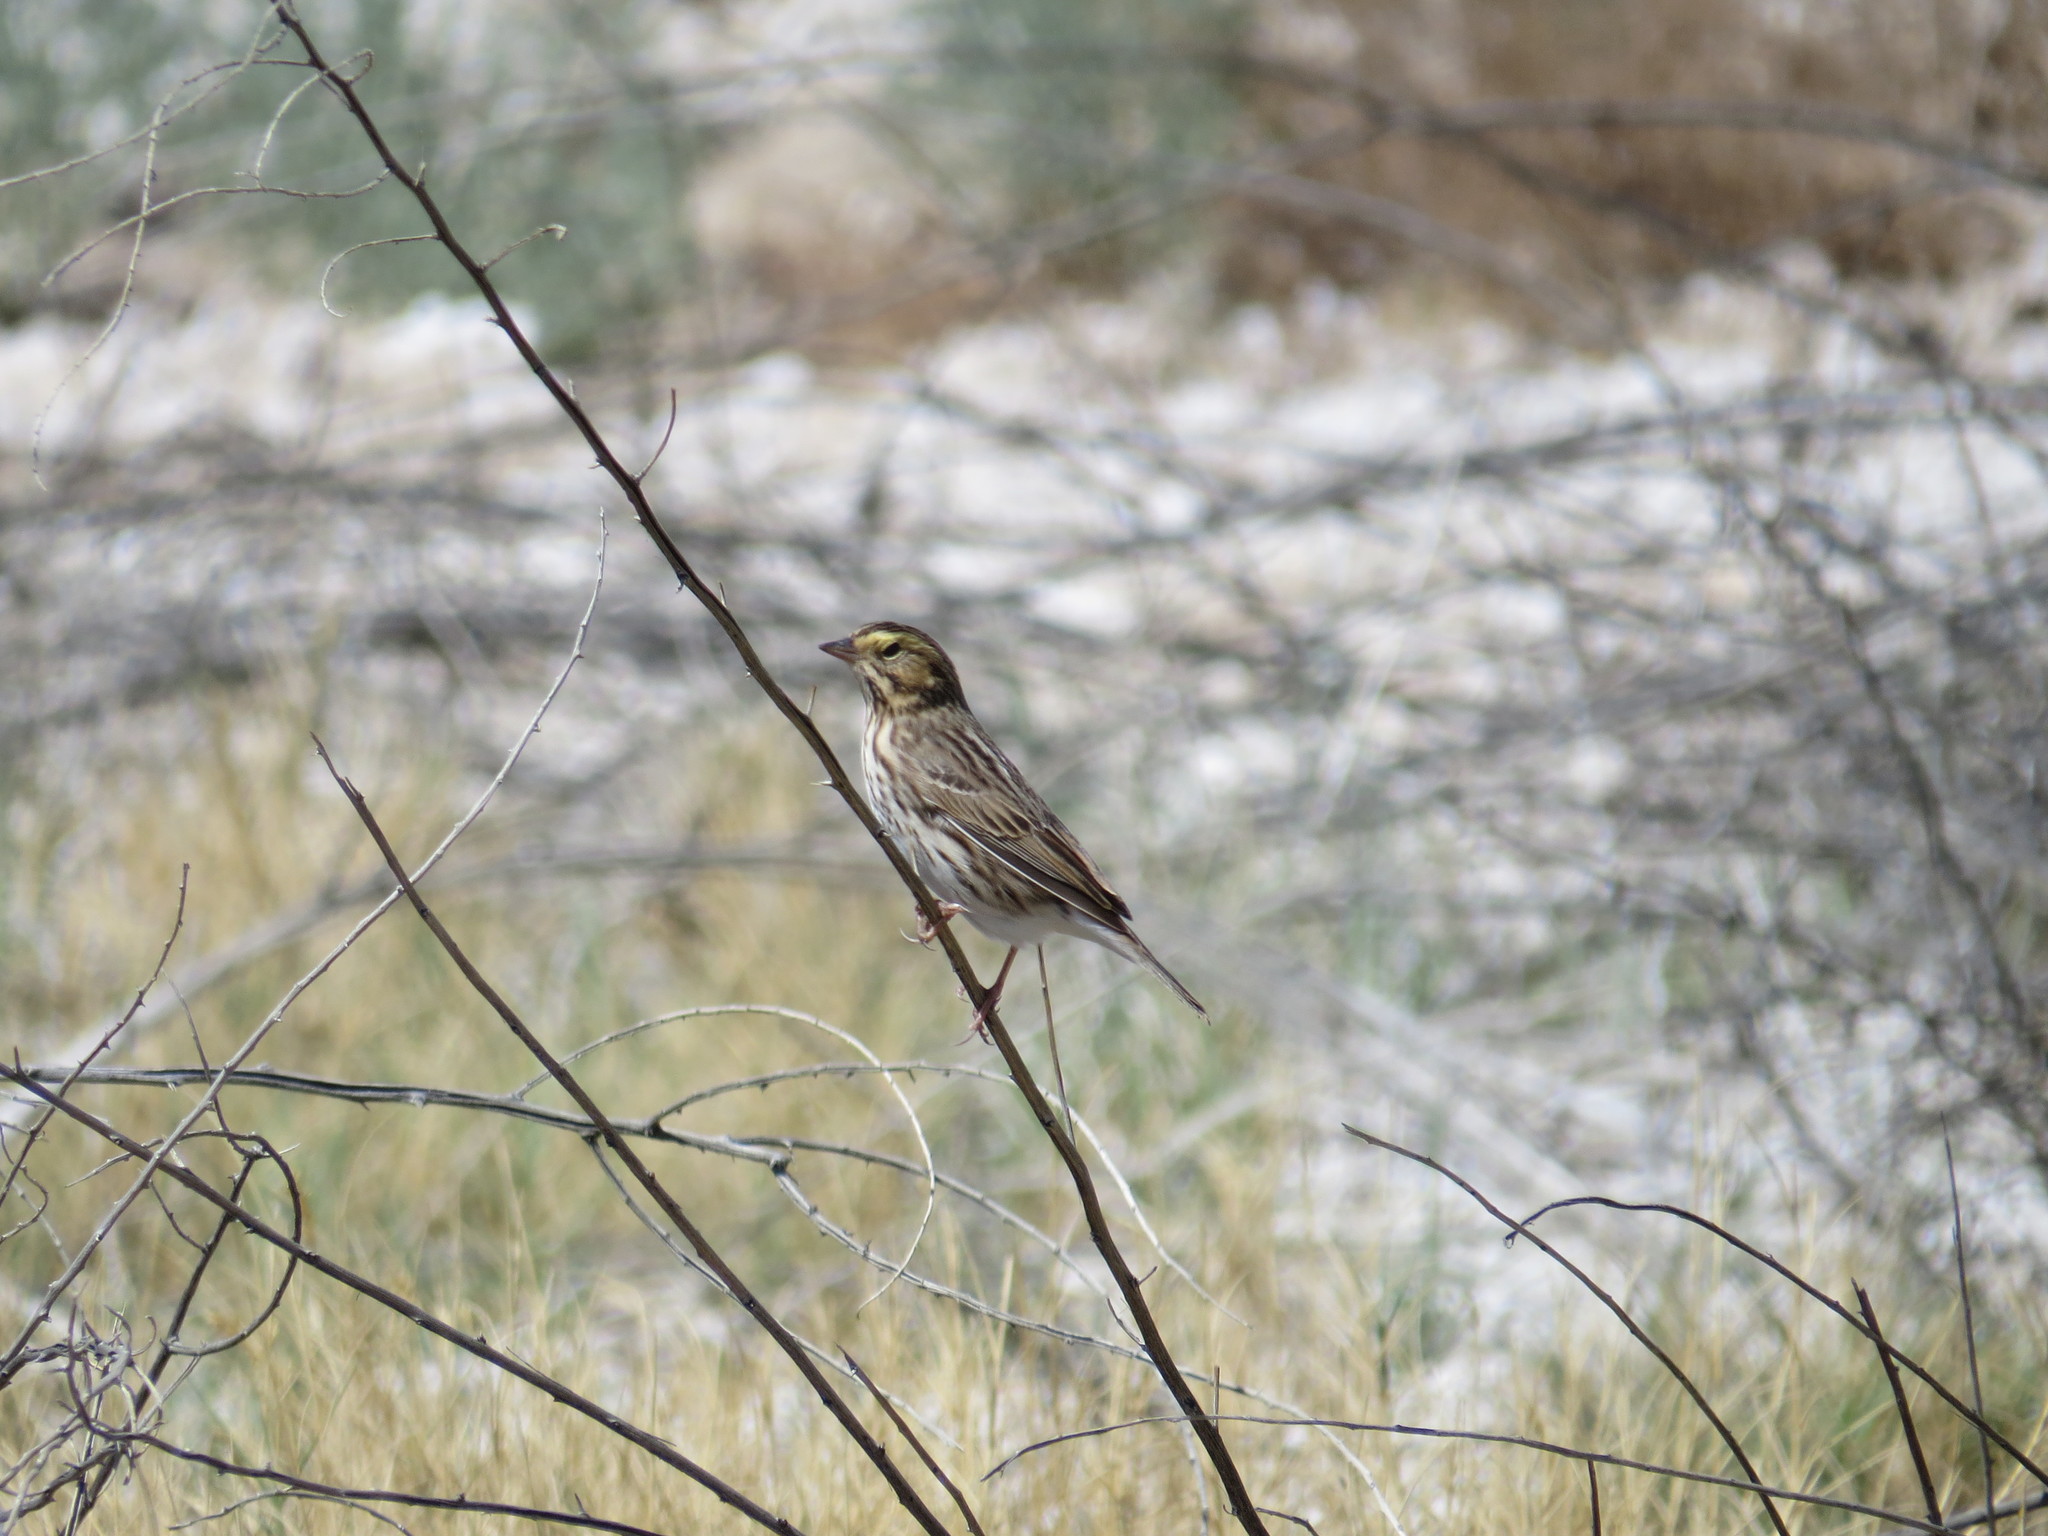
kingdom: Animalia
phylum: Chordata
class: Aves
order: Passeriformes
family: Passerellidae
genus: Passerculus
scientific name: Passerculus sandwichensis
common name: Savannah sparrow
